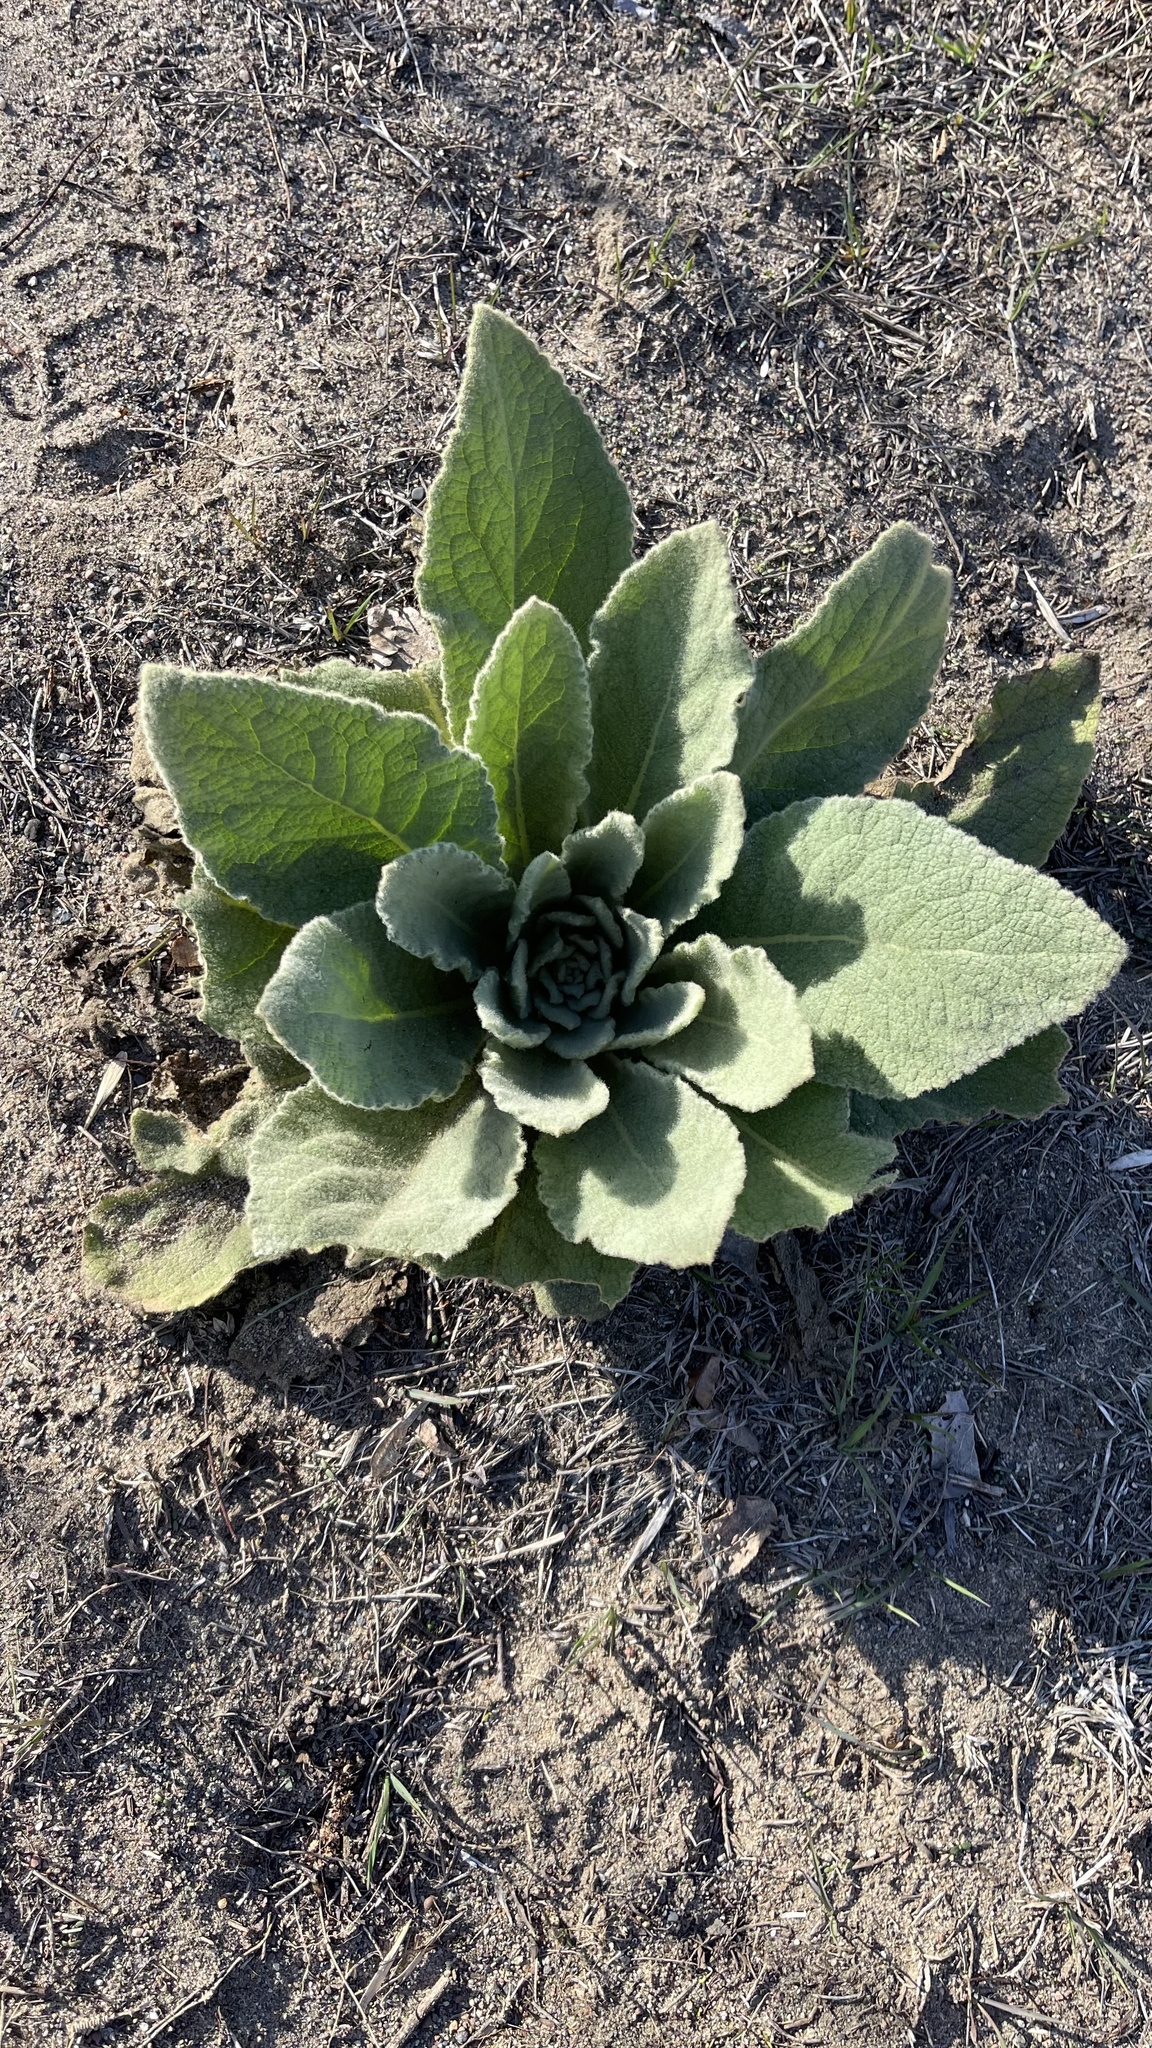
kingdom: Plantae
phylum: Tracheophyta
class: Magnoliopsida
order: Lamiales
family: Scrophulariaceae
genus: Verbascum
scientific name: Verbascum thapsus
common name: Common mullein
